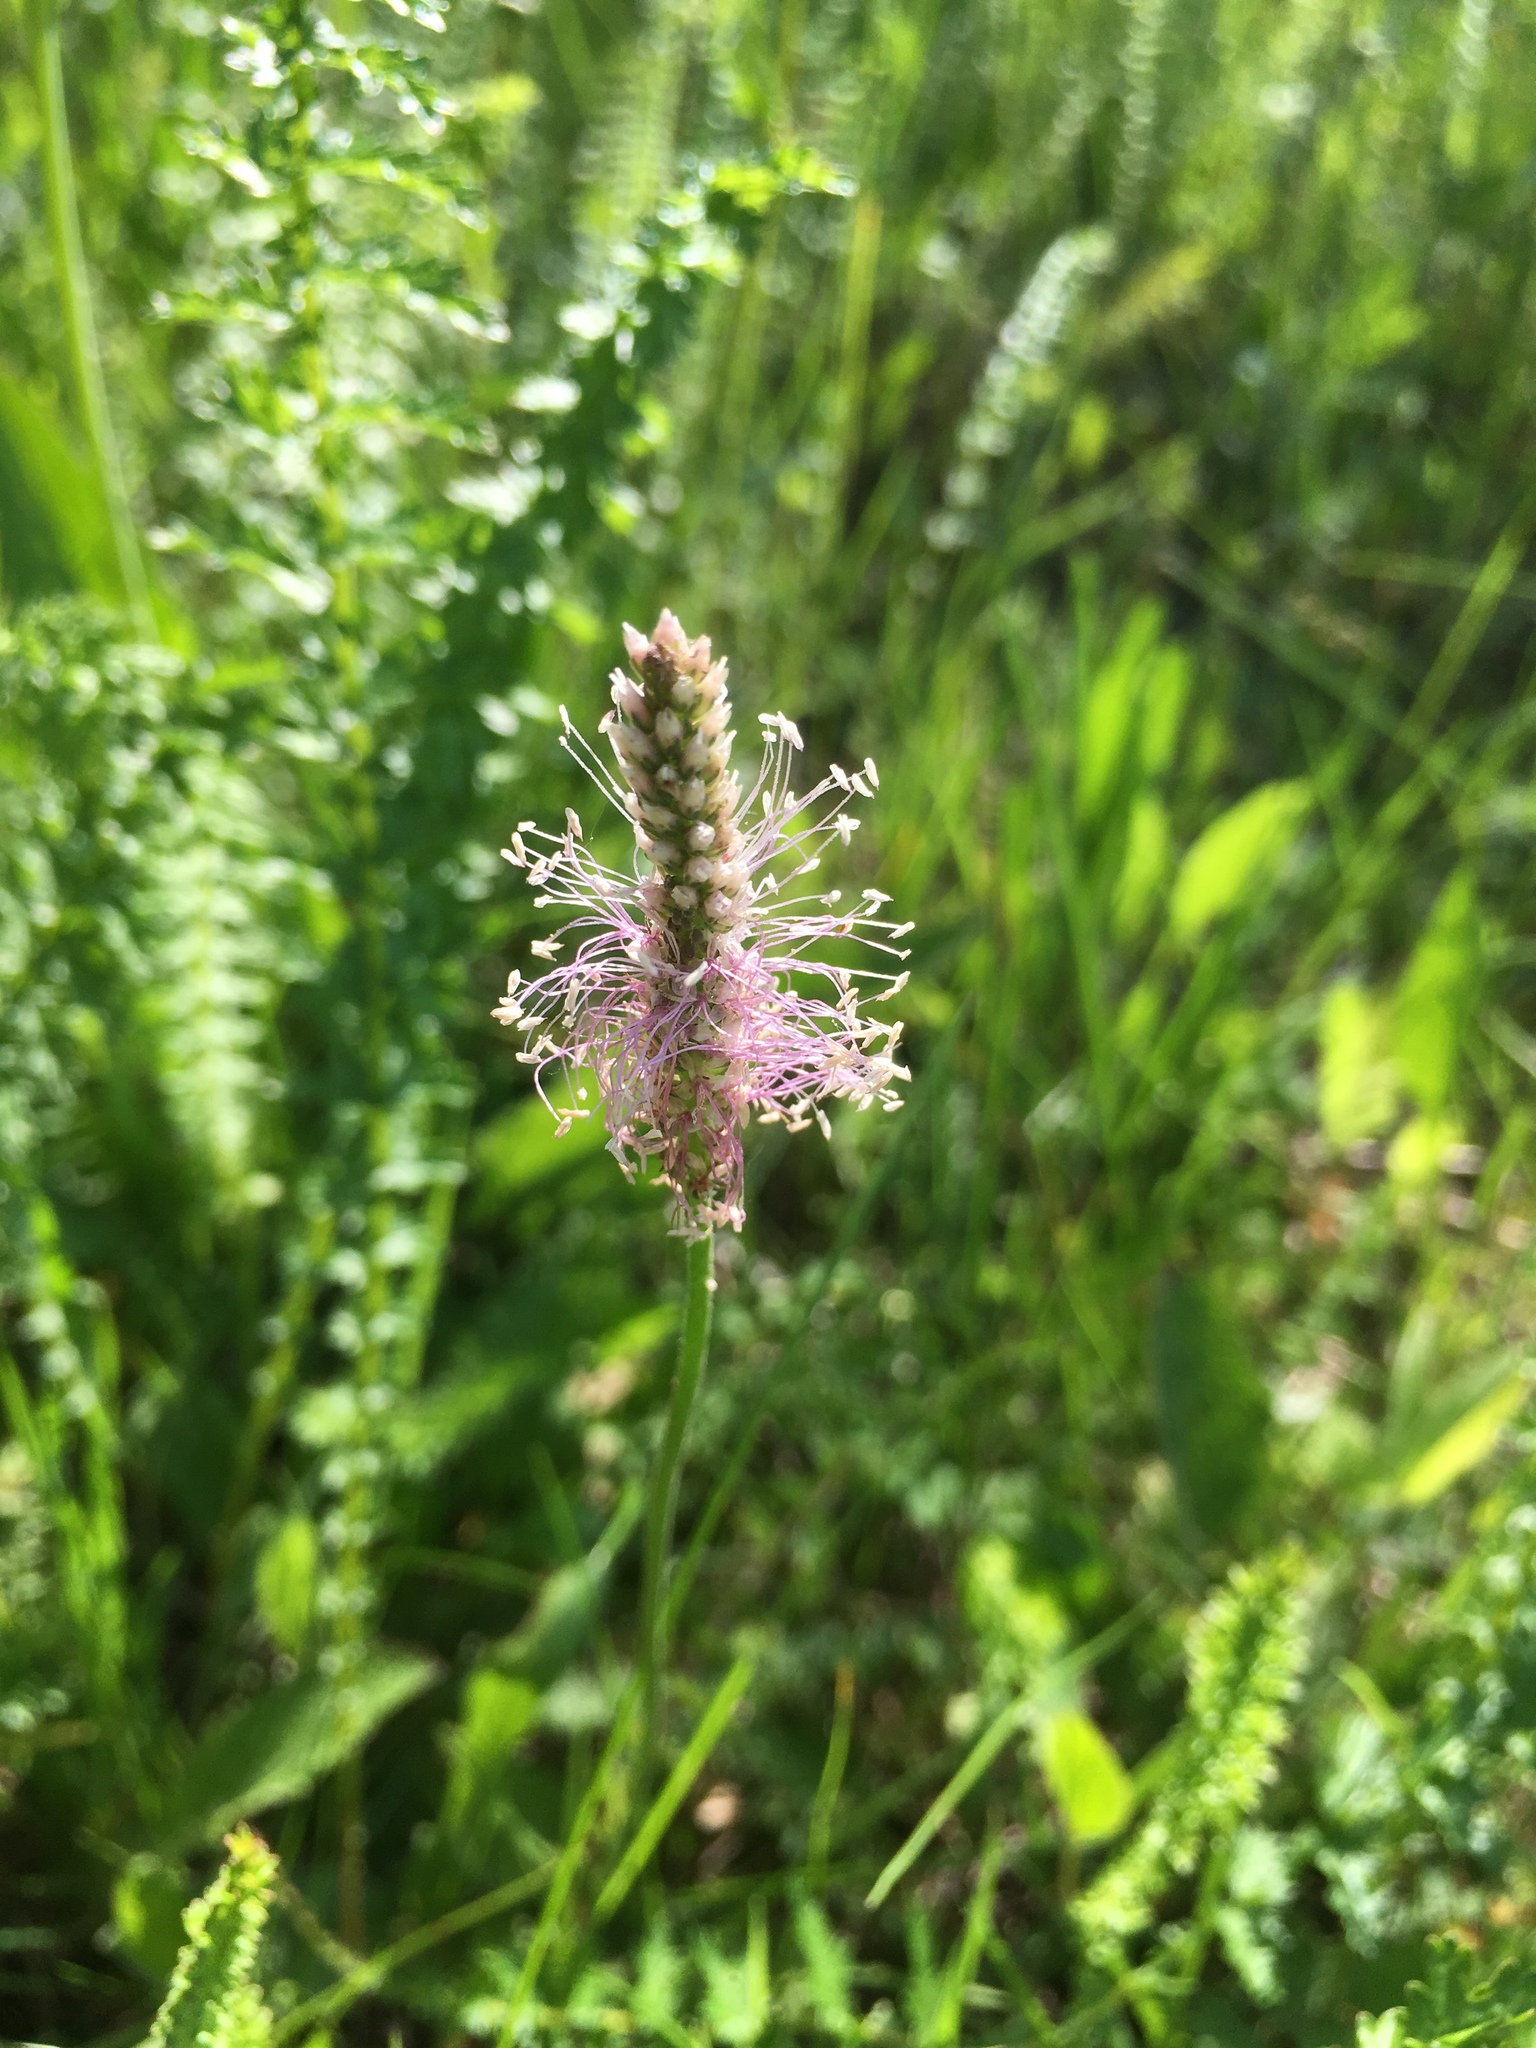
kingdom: Plantae
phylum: Tracheophyta
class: Magnoliopsida
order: Lamiales
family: Plantaginaceae
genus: Plantago
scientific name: Plantago media
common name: Hoary plantain
